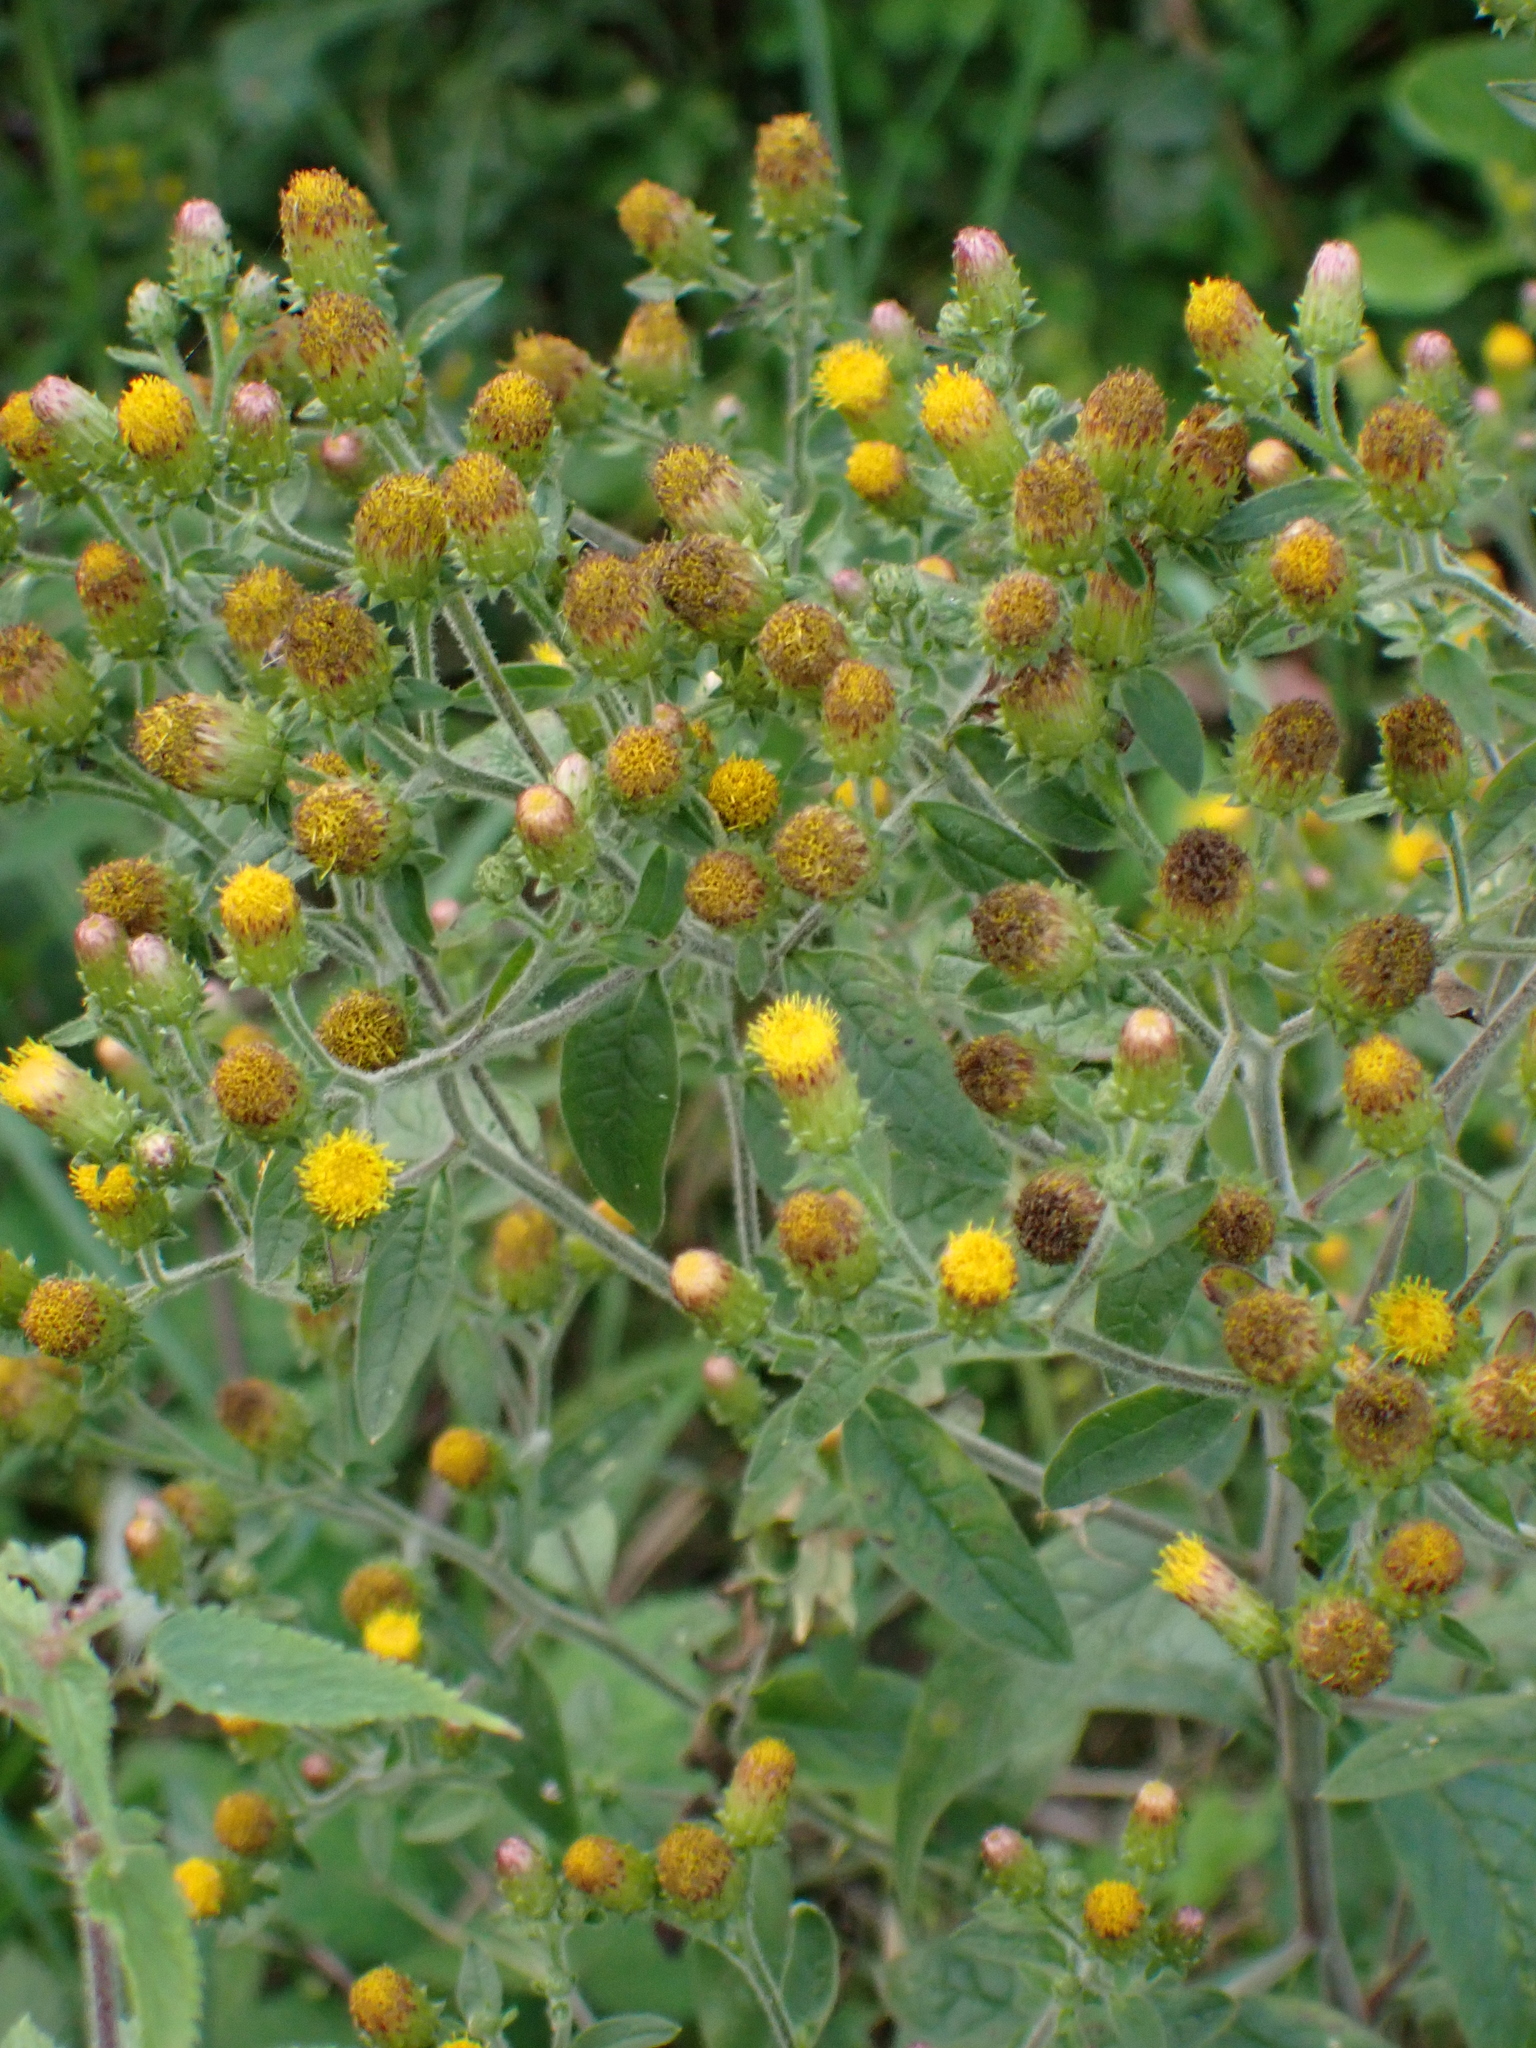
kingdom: Plantae
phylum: Tracheophyta
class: Magnoliopsida
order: Asterales
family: Asteraceae
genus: Pentanema
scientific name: Pentanema squarrosum
